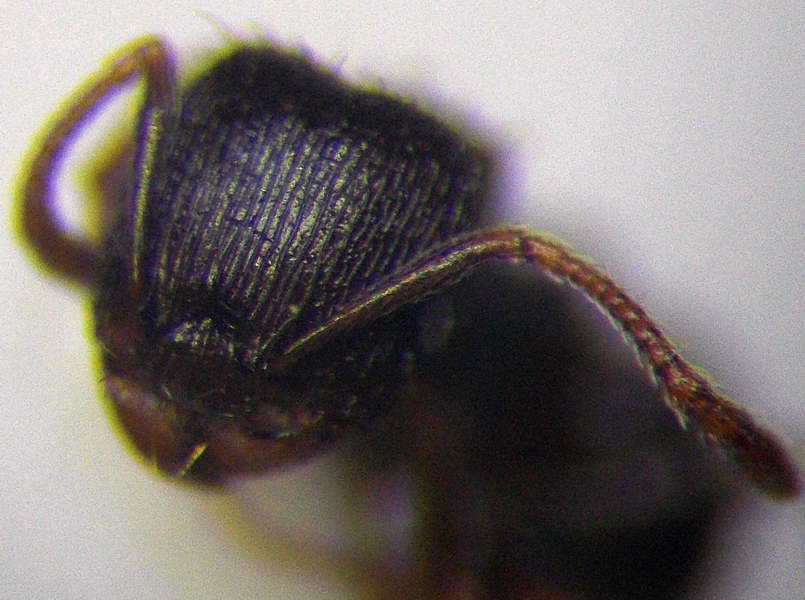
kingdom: Animalia
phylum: Arthropoda
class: Insecta
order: Hymenoptera
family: Formicidae
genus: Tetramorium
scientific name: Tetramorium chefketi
